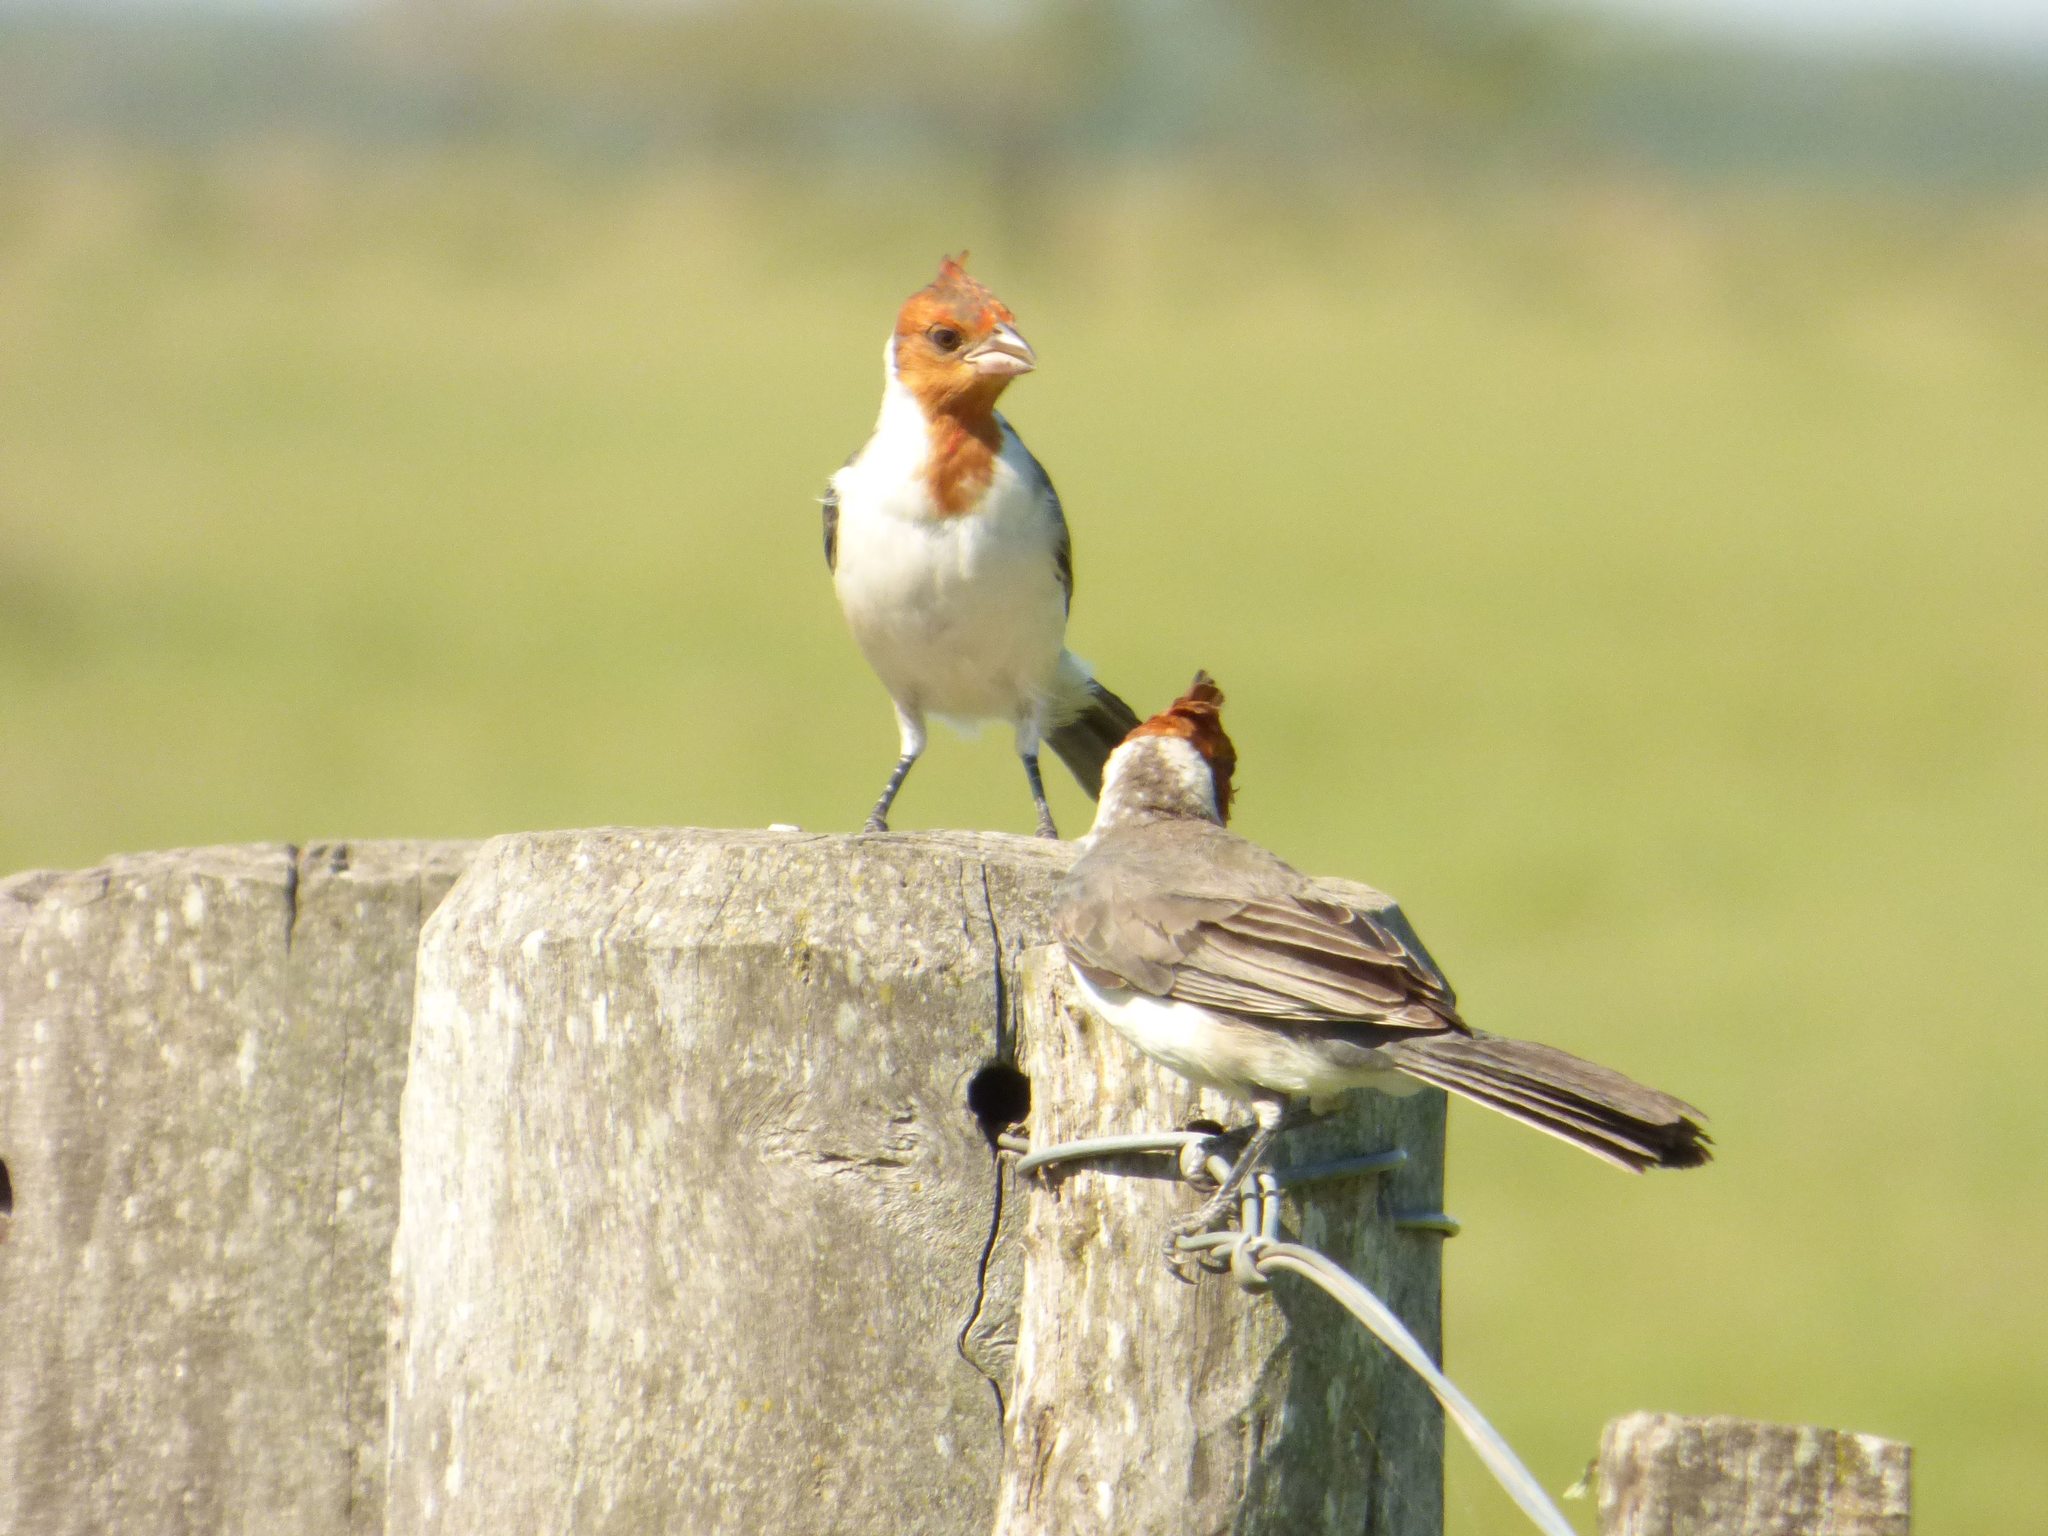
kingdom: Animalia
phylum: Chordata
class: Aves
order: Passeriformes
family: Thraupidae
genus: Paroaria
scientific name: Paroaria coronata
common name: Red-crested cardinal
